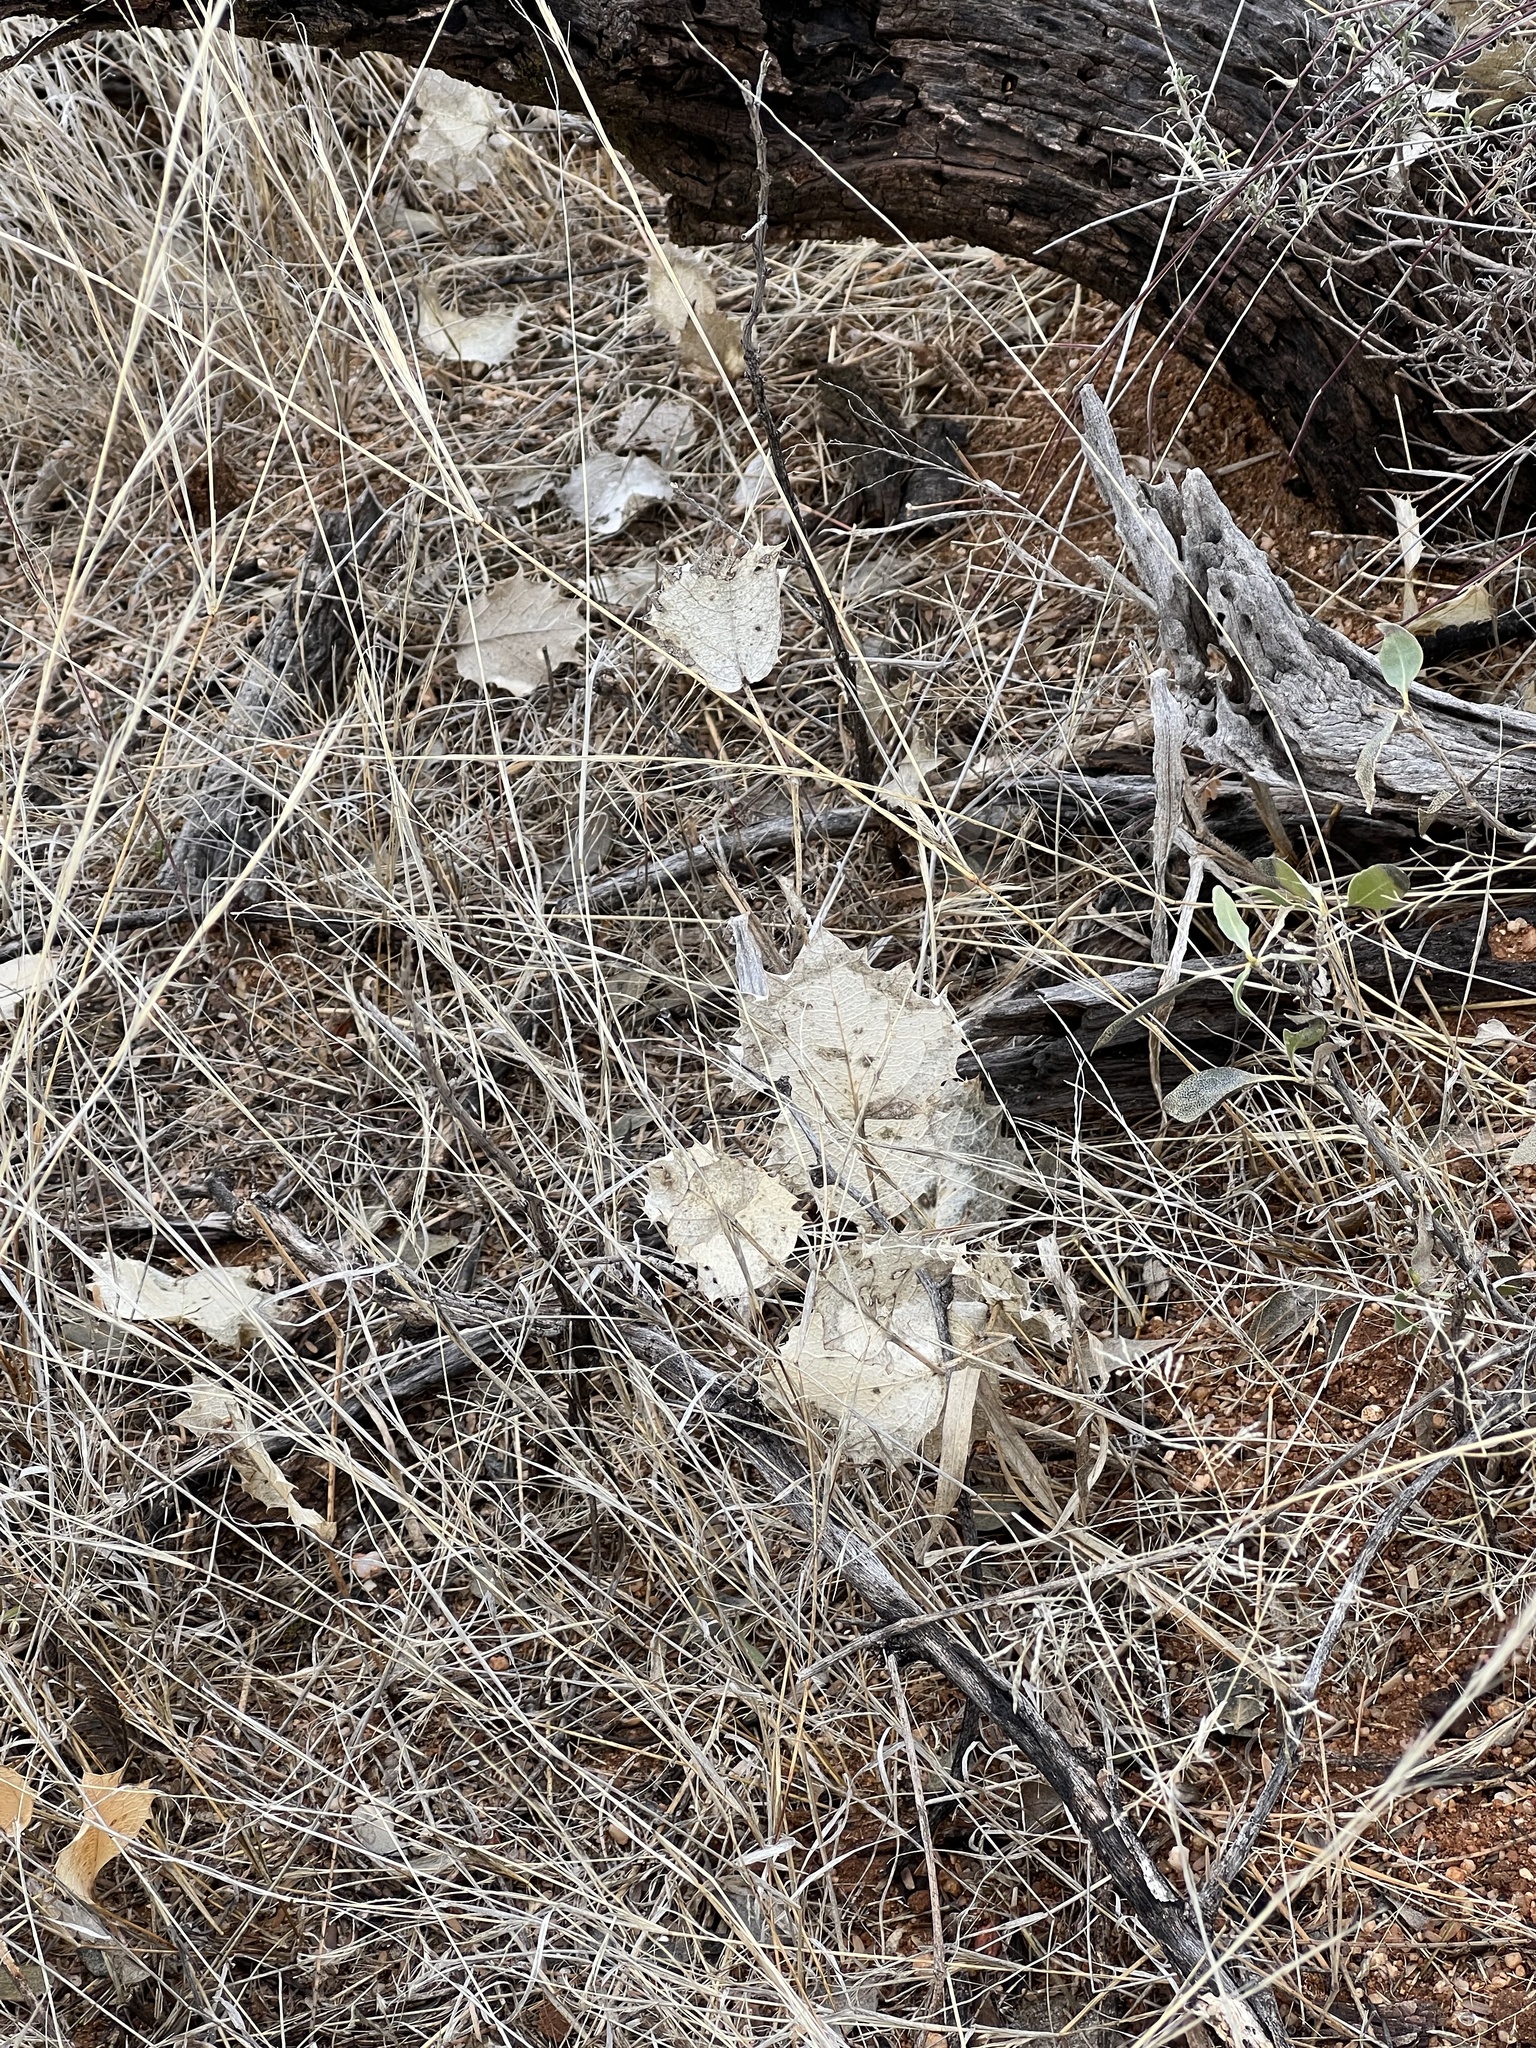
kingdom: Plantae
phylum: Tracheophyta
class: Magnoliopsida
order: Asterales
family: Asteraceae
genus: Acourtia
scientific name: Acourtia nana
